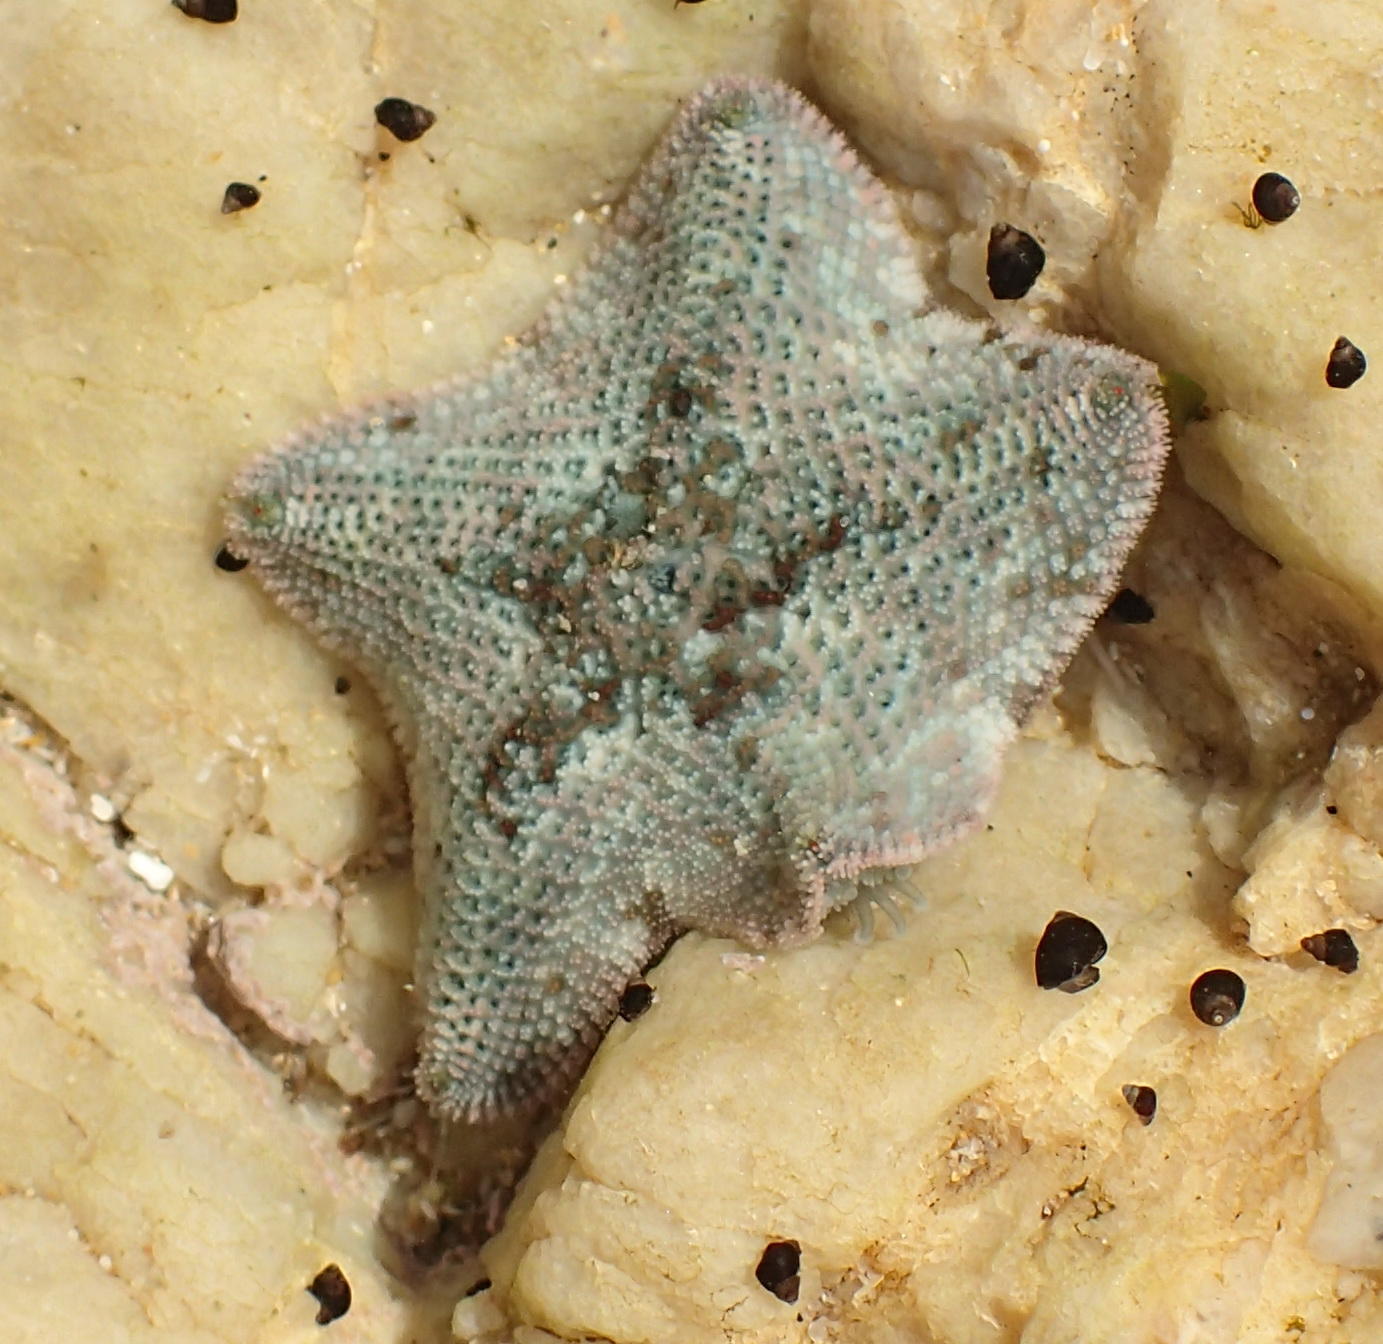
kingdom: Animalia
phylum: Echinodermata
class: Asteroidea
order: Valvatida
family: Asterinidae
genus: Parvulastra
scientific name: Parvulastra exigua
